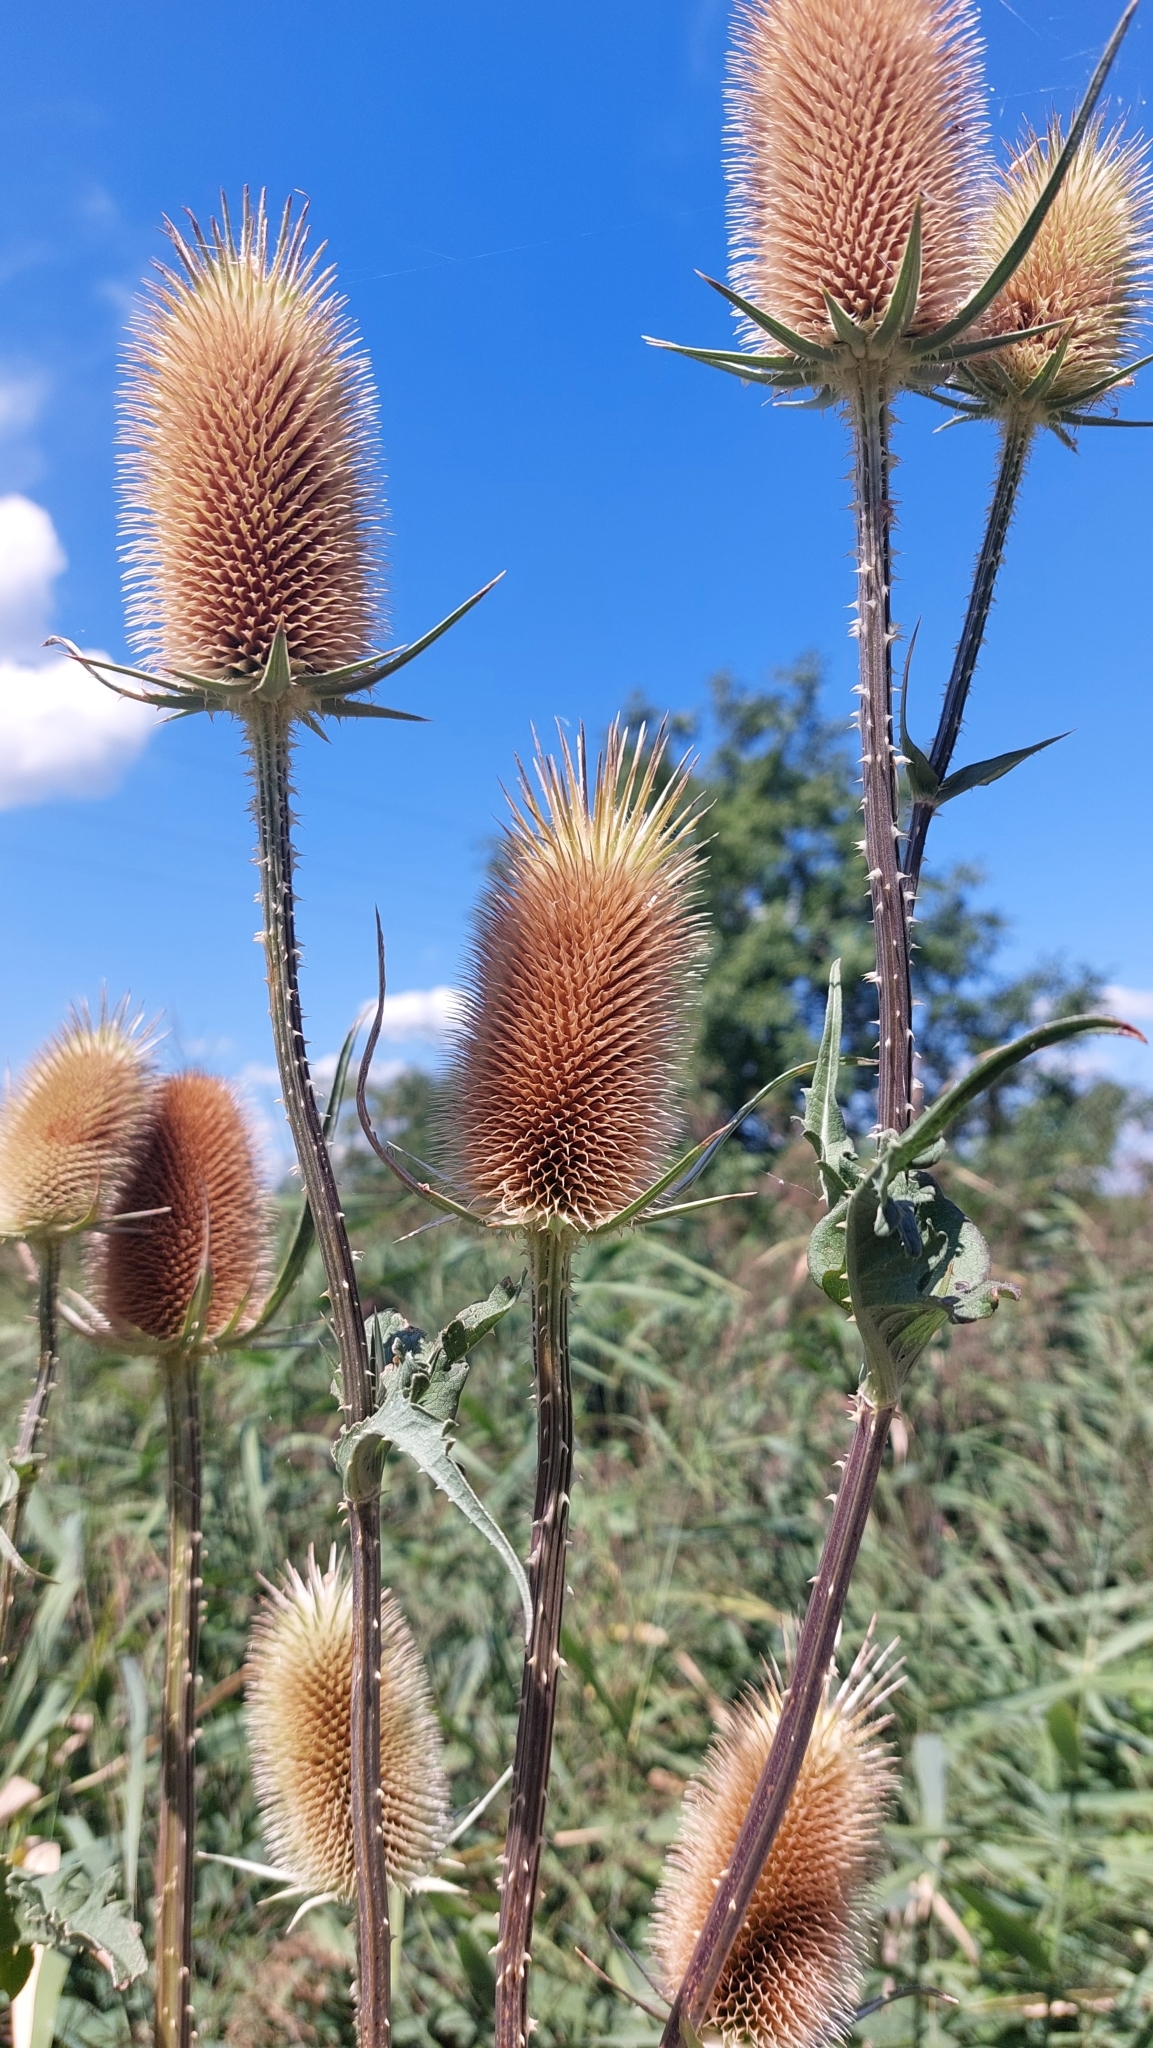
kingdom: Plantae
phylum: Tracheophyta
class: Magnoliopsida
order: Dipsacales
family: Caprifoliaceae
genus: Dipsacus
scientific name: Dipsacus laciniatus
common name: Cut-leaved teasel
